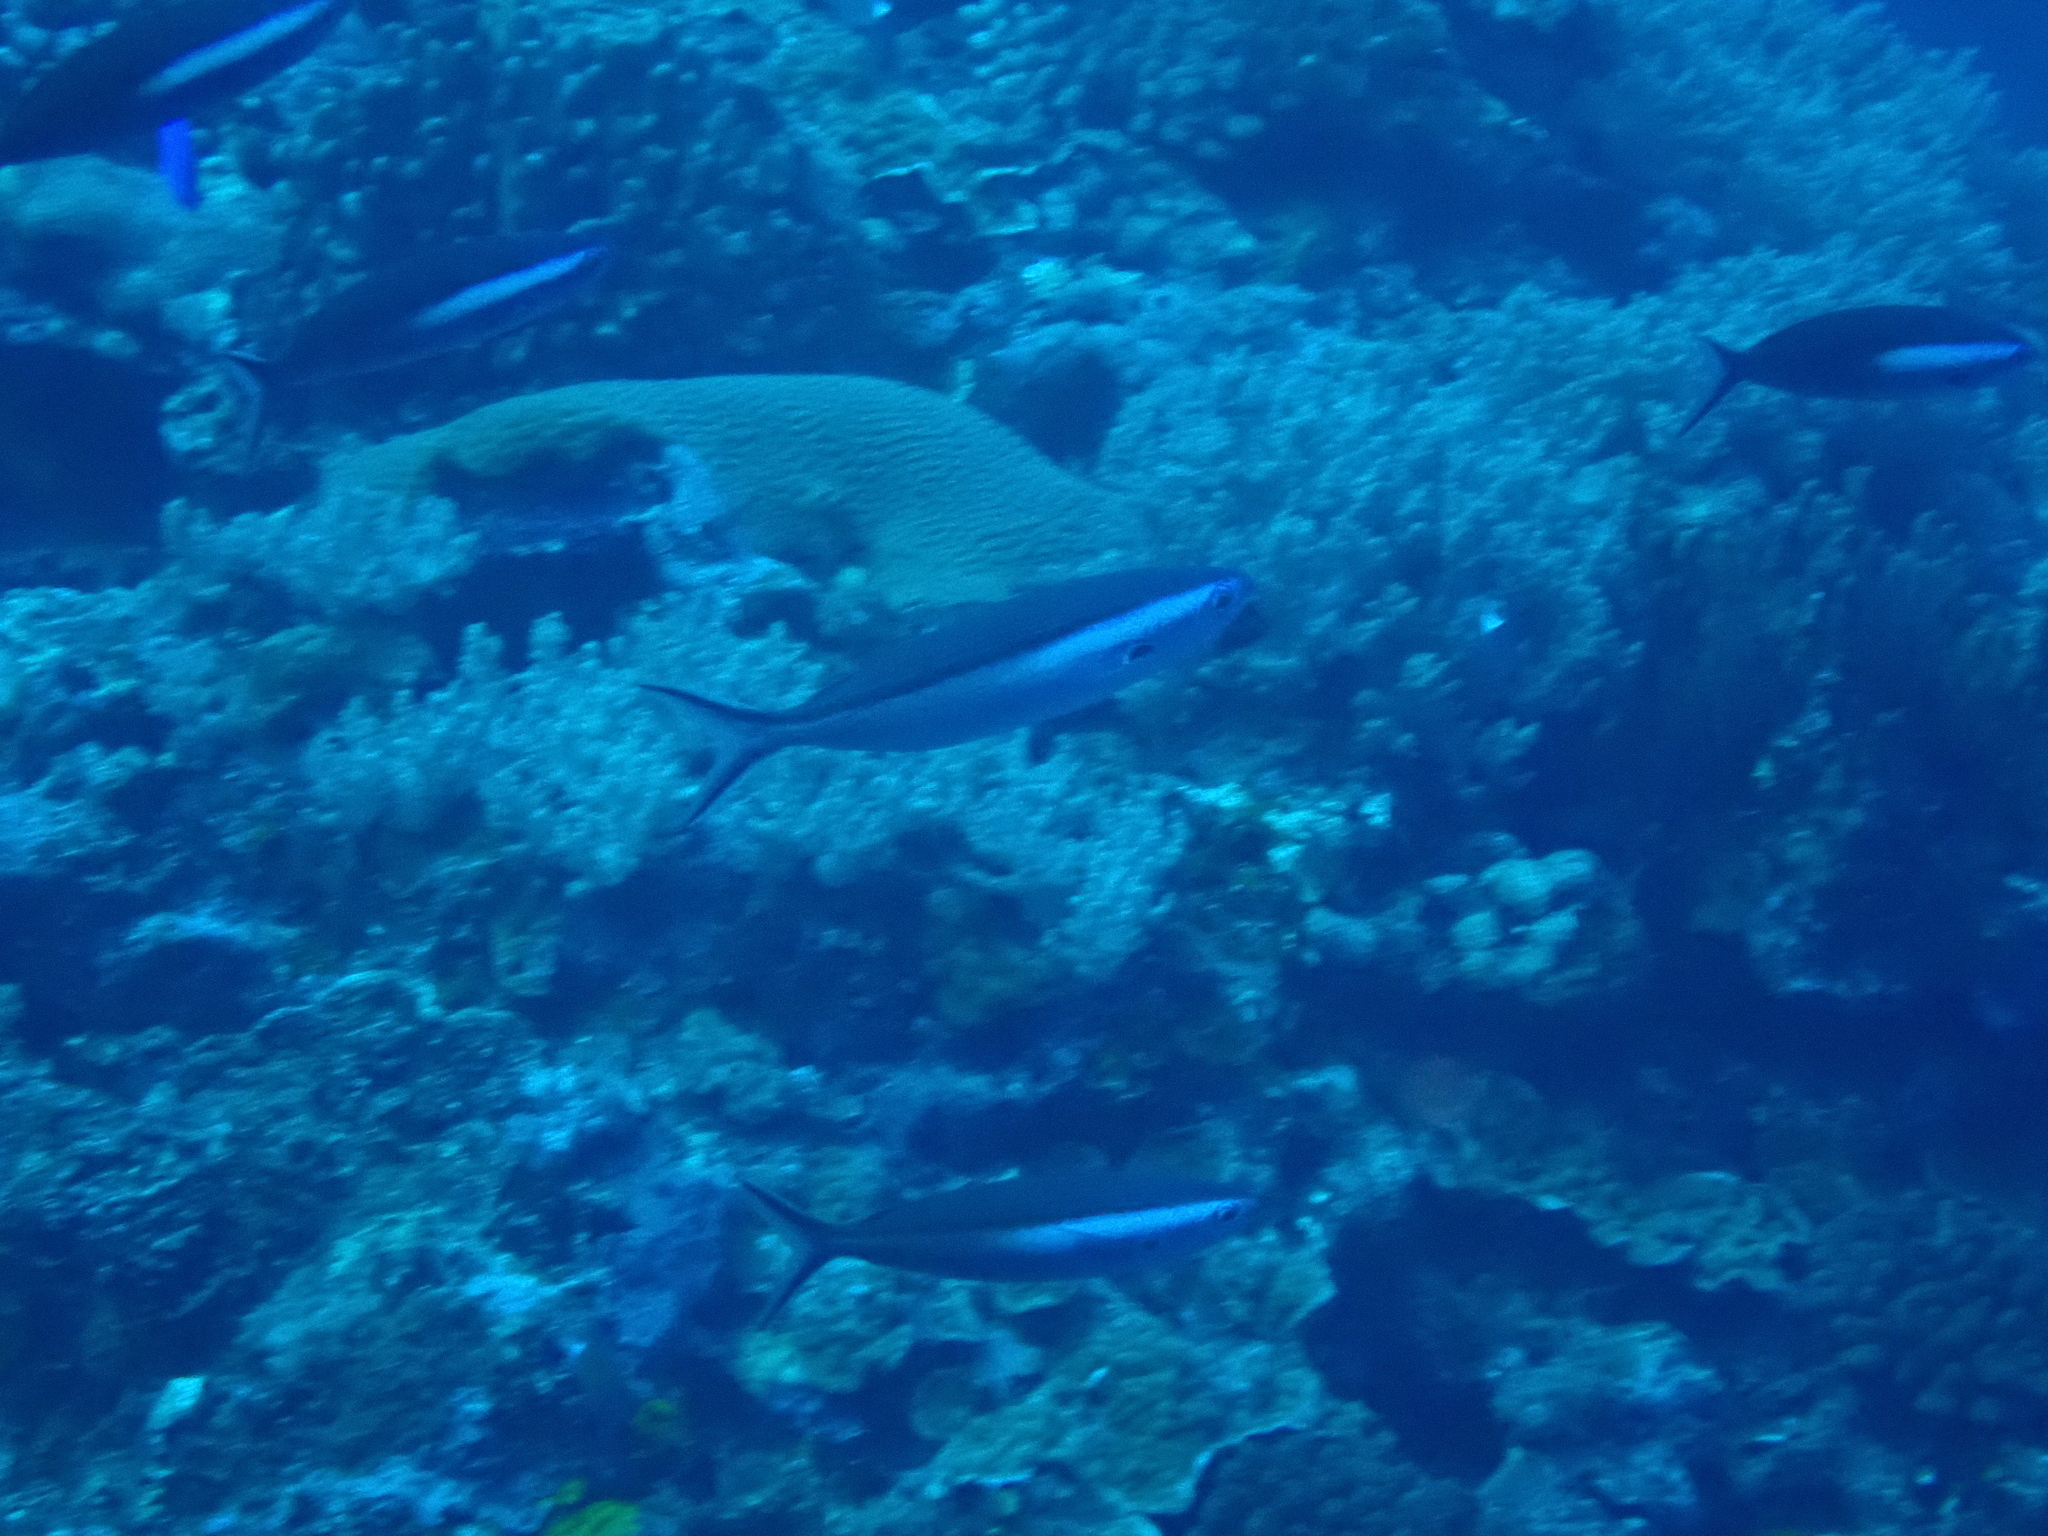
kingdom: Animalia
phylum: Chordata
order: Perciformes
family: Caesionidae
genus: Pterocaesio
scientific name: Pterocaesio tile
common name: Dark-banded fusilier
